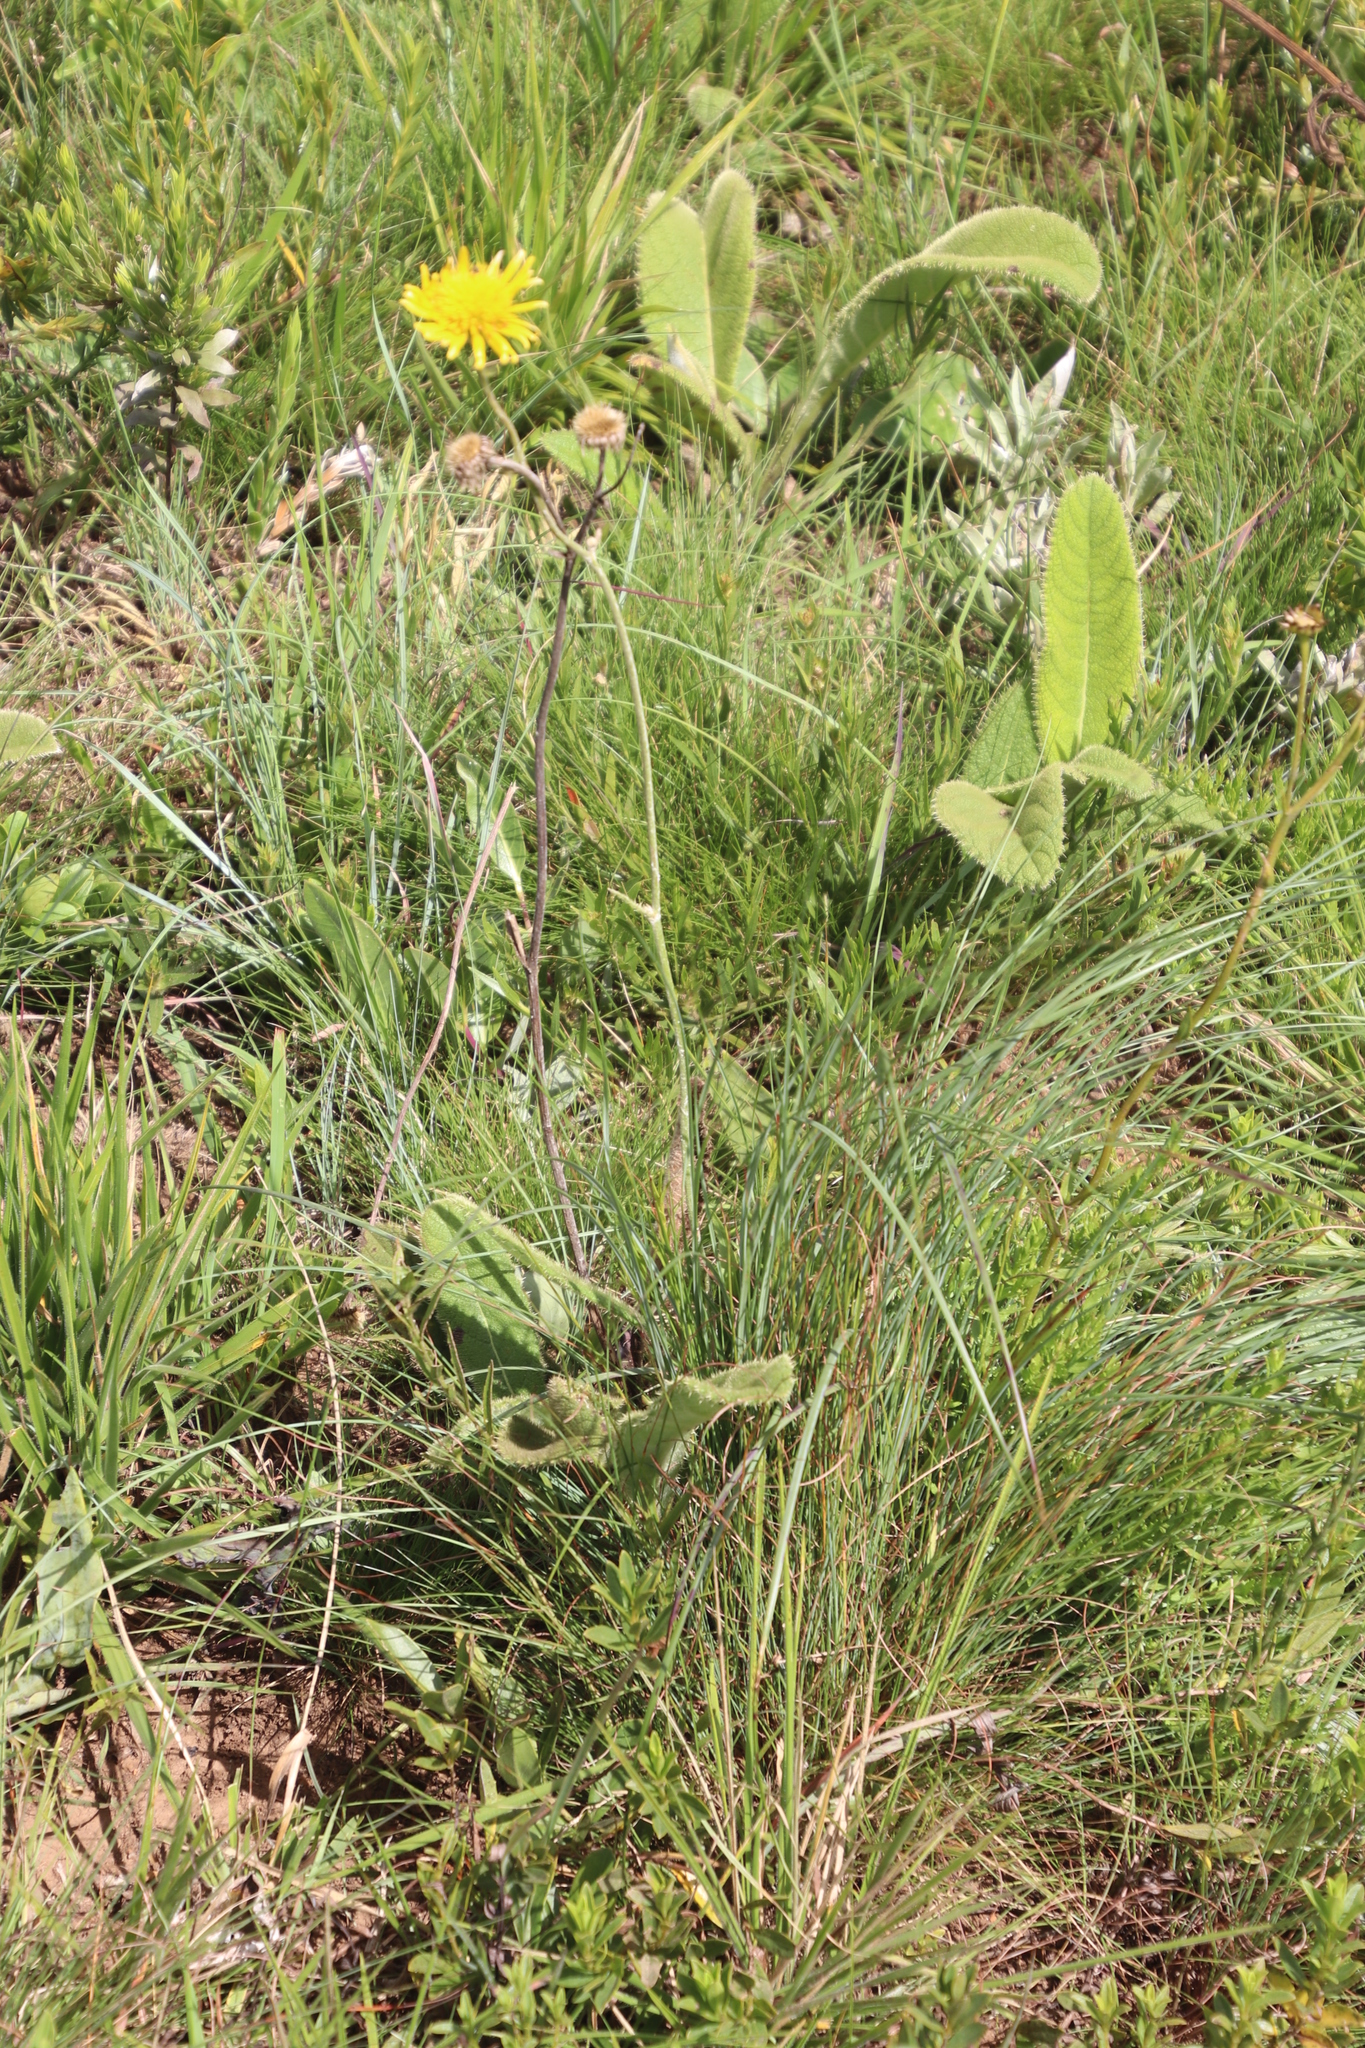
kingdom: Plantae
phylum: Tracheophyta
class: Magnoliopsida
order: Asterales
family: Asteraceae
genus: Berkheya
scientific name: Berkheya setifera
